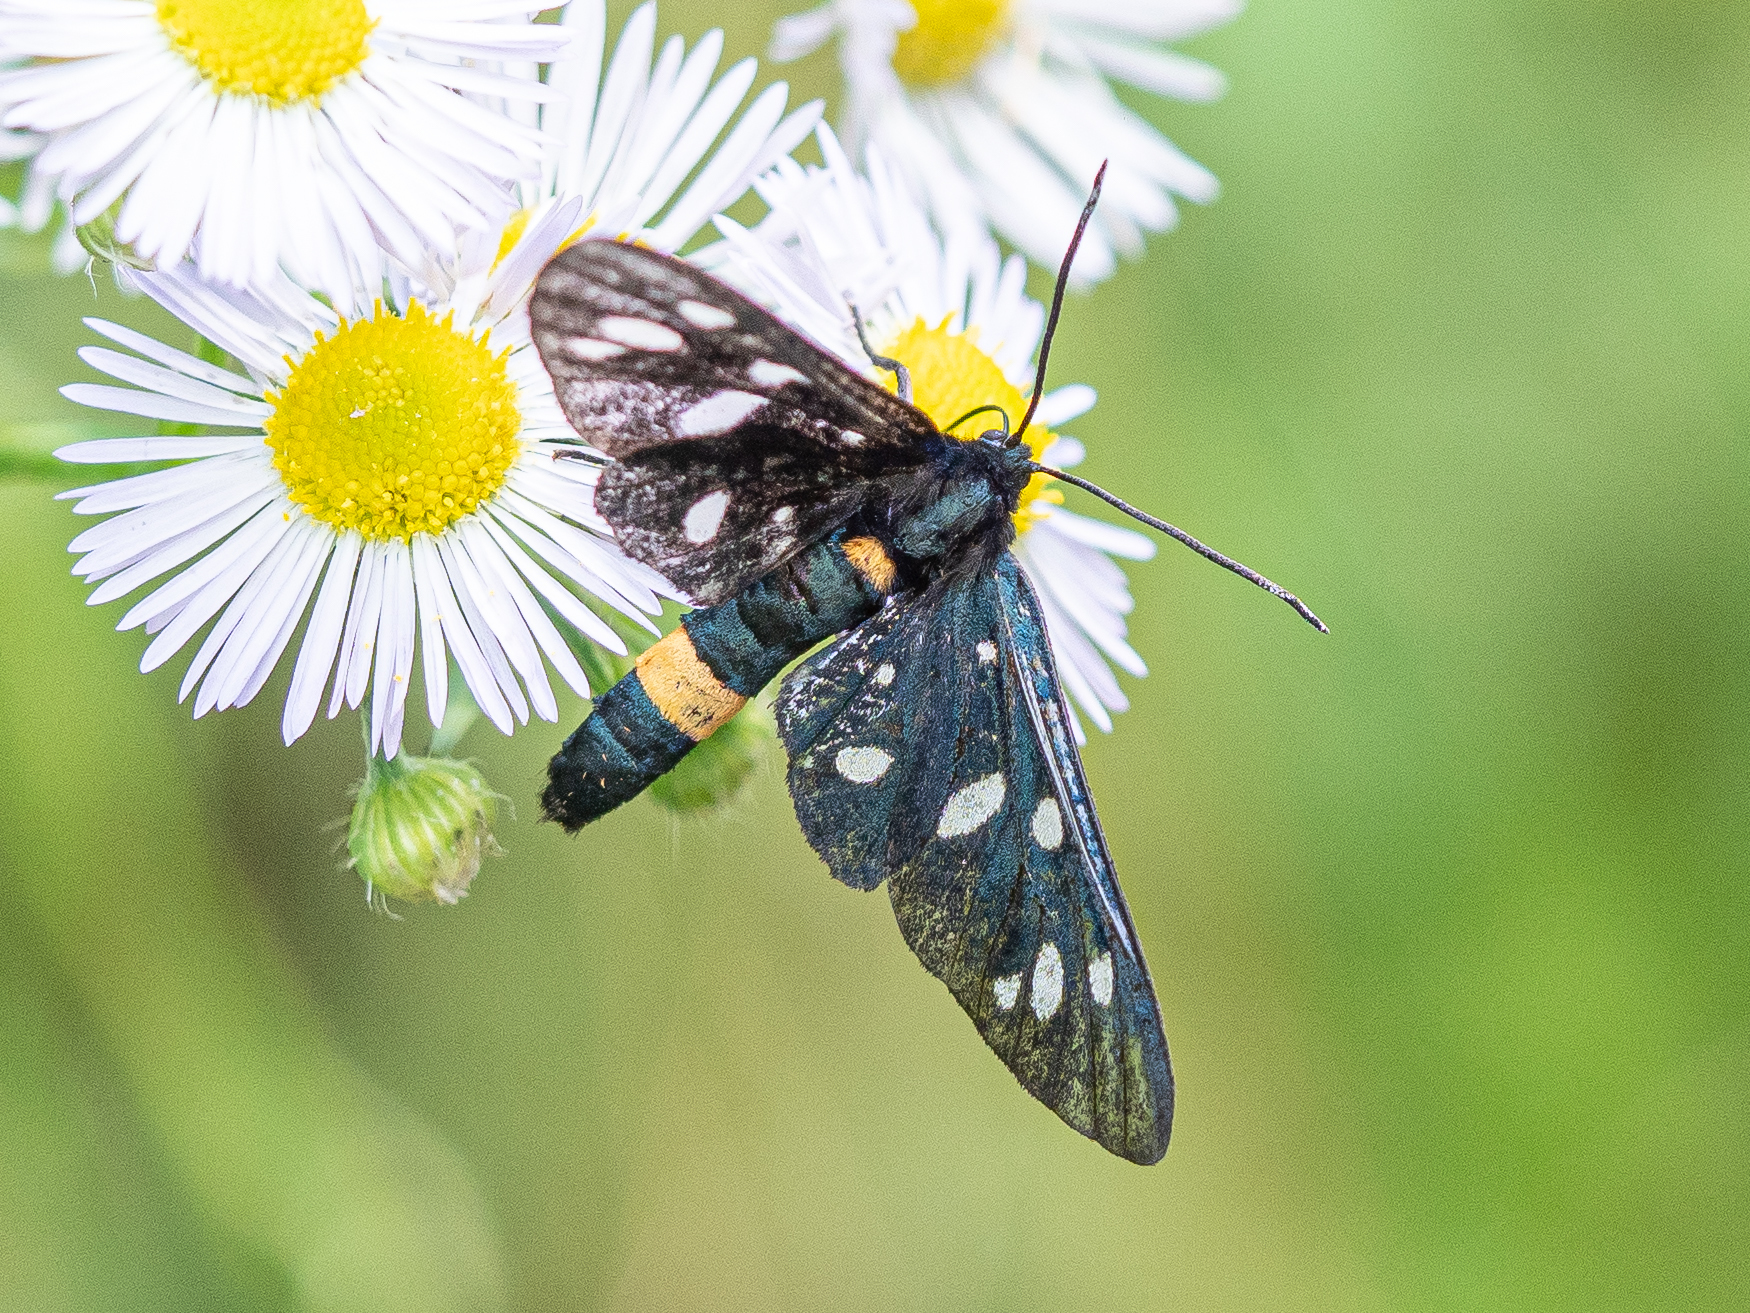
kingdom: Animalia
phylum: Arthropoda
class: Insecta
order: Lepidoptera
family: Erebidae
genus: Amata
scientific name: Amata phegea
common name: Nine-spotted
